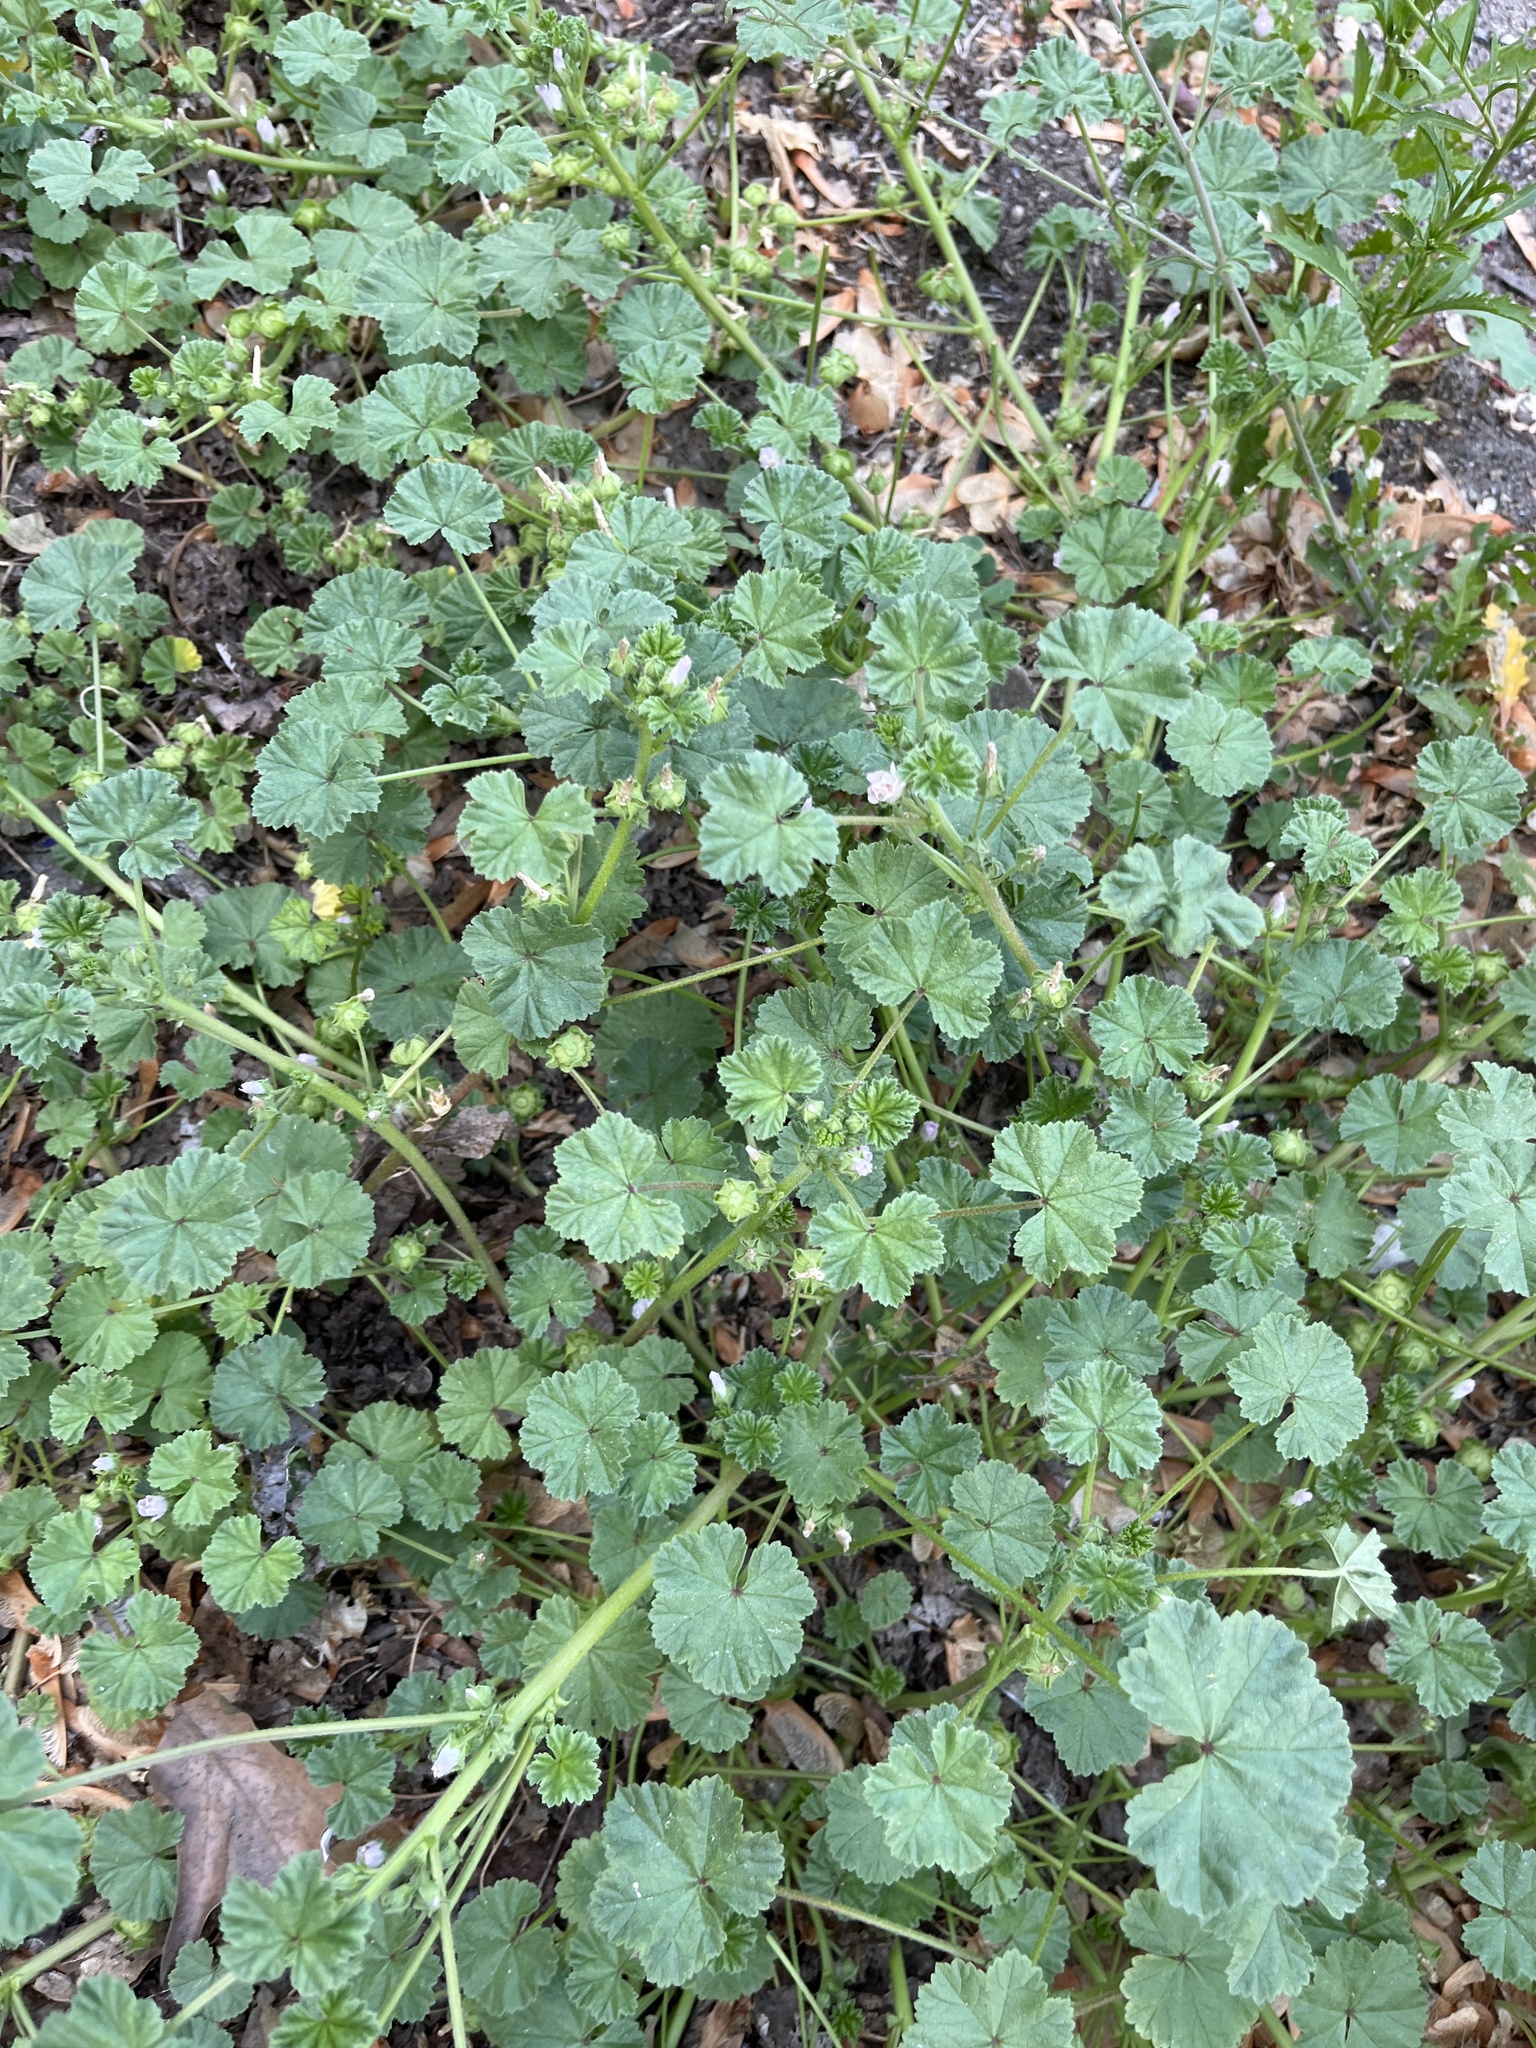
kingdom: Plantae
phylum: Tracheophyta
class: Magnoliopsida
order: Malvales
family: Malvaceae
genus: Malva
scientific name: Malva neglecta
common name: Common mallow
